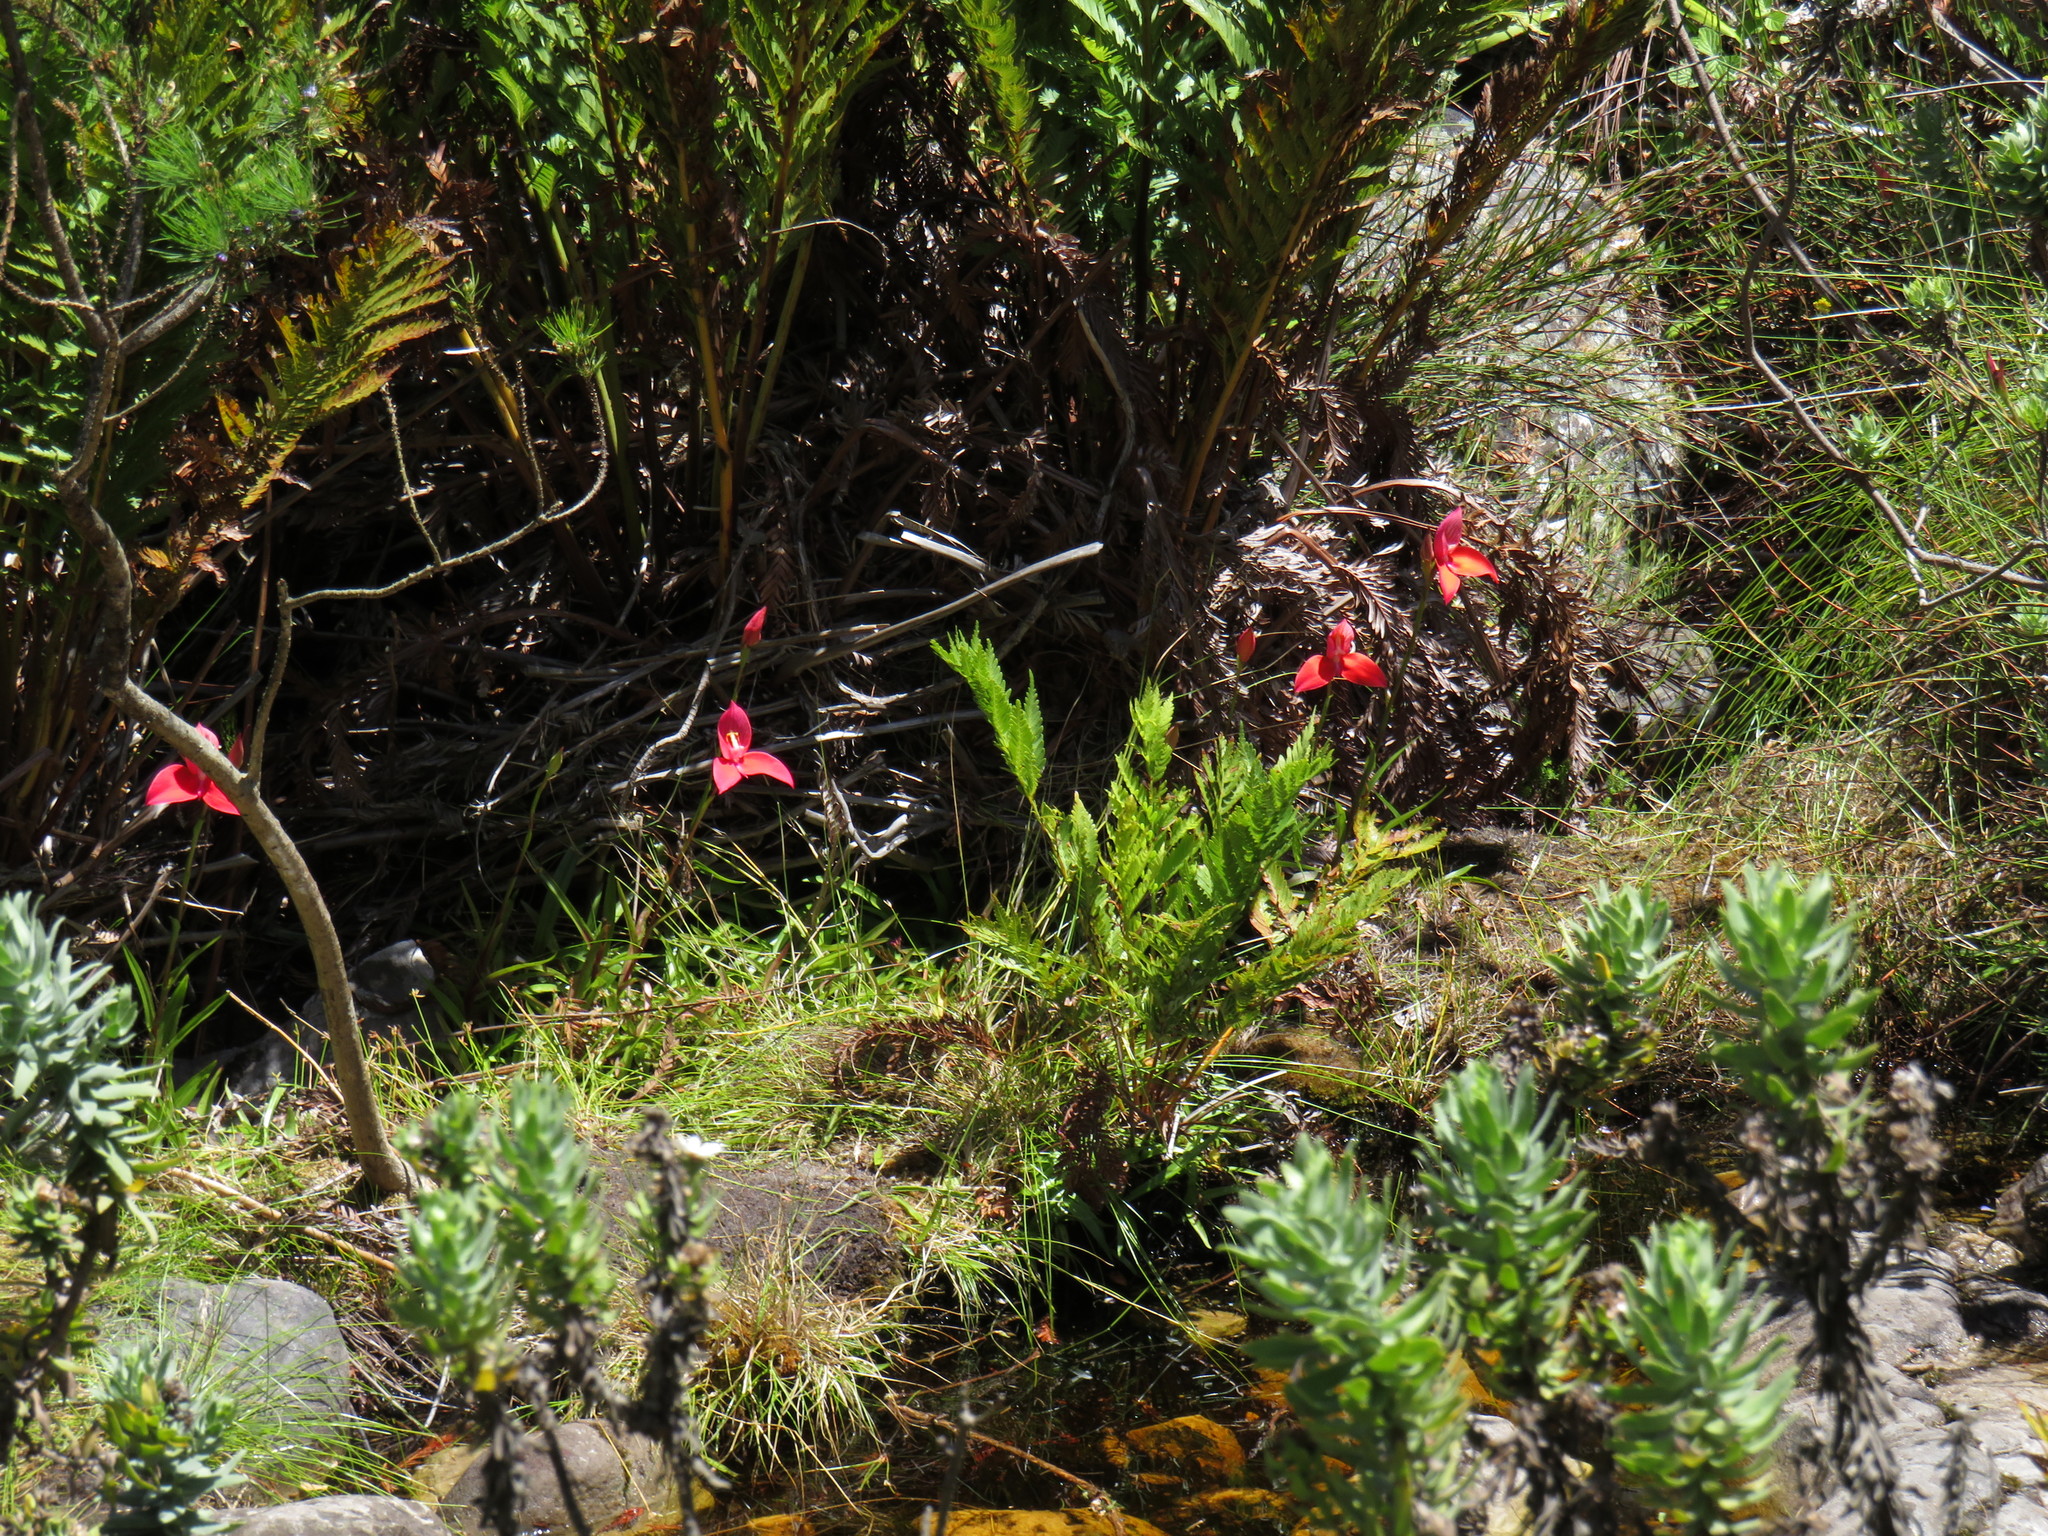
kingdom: Plantae
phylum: Tracheophyta
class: Liliopsida
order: Asparagales
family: Orchidaceae
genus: Disa
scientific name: Disa uniflora
